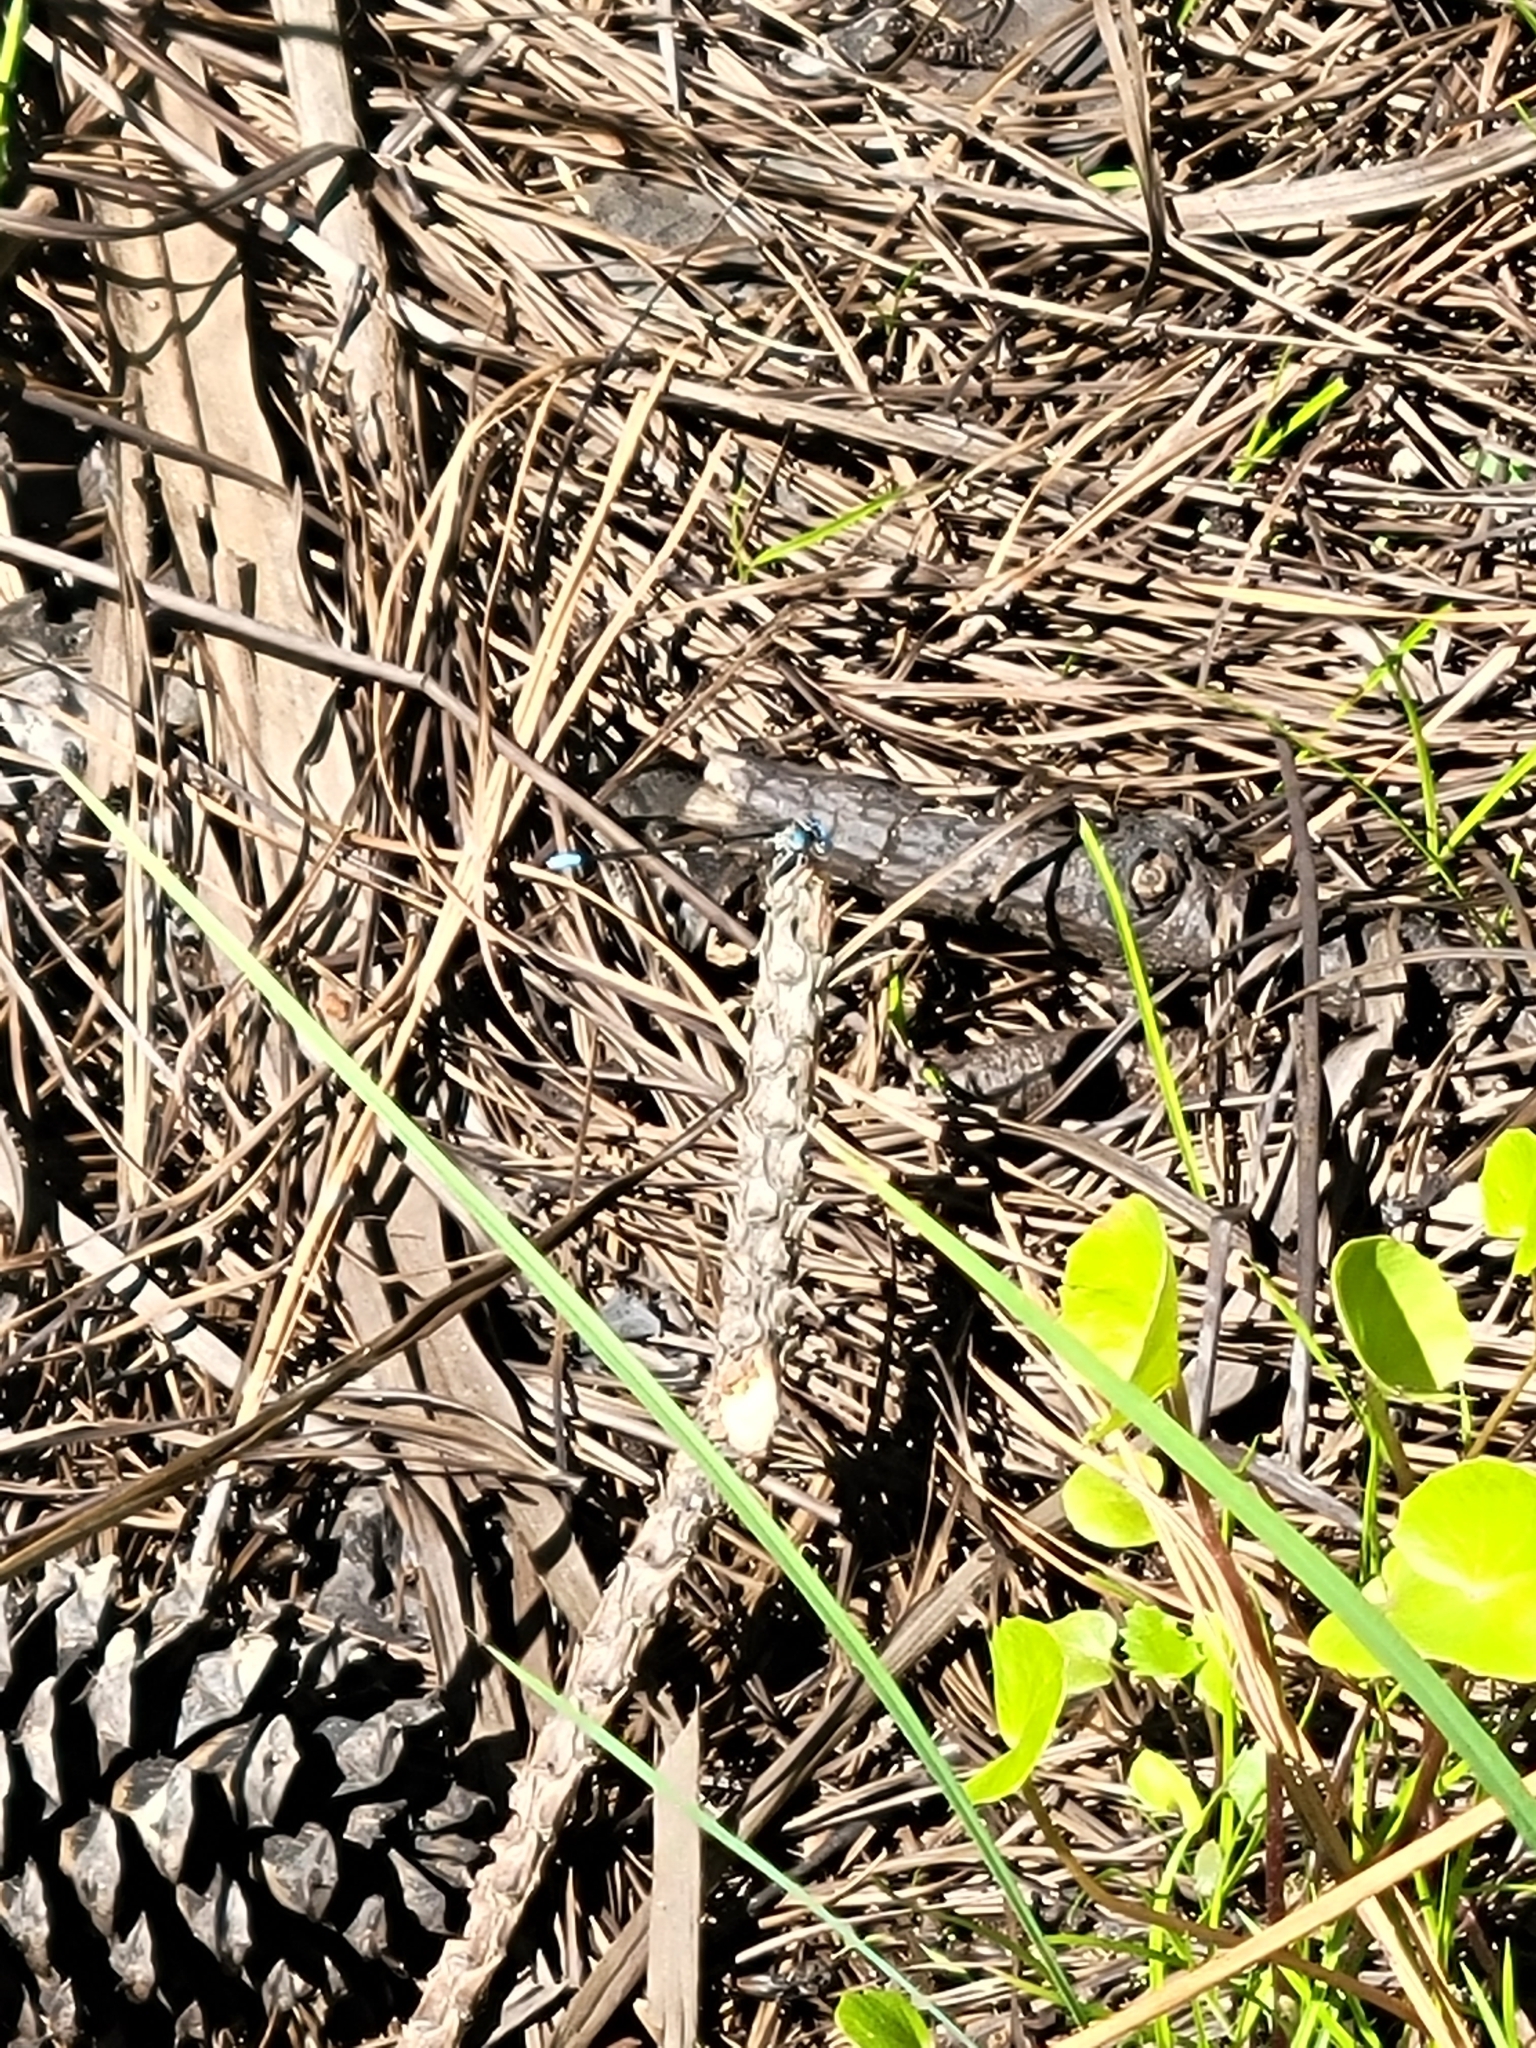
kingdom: Animalia
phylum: Arthropoda
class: Insecta
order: Odonata
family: Coenagrionidae
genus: Argia
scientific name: Argia apicalis
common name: Blue-fronted dancer
